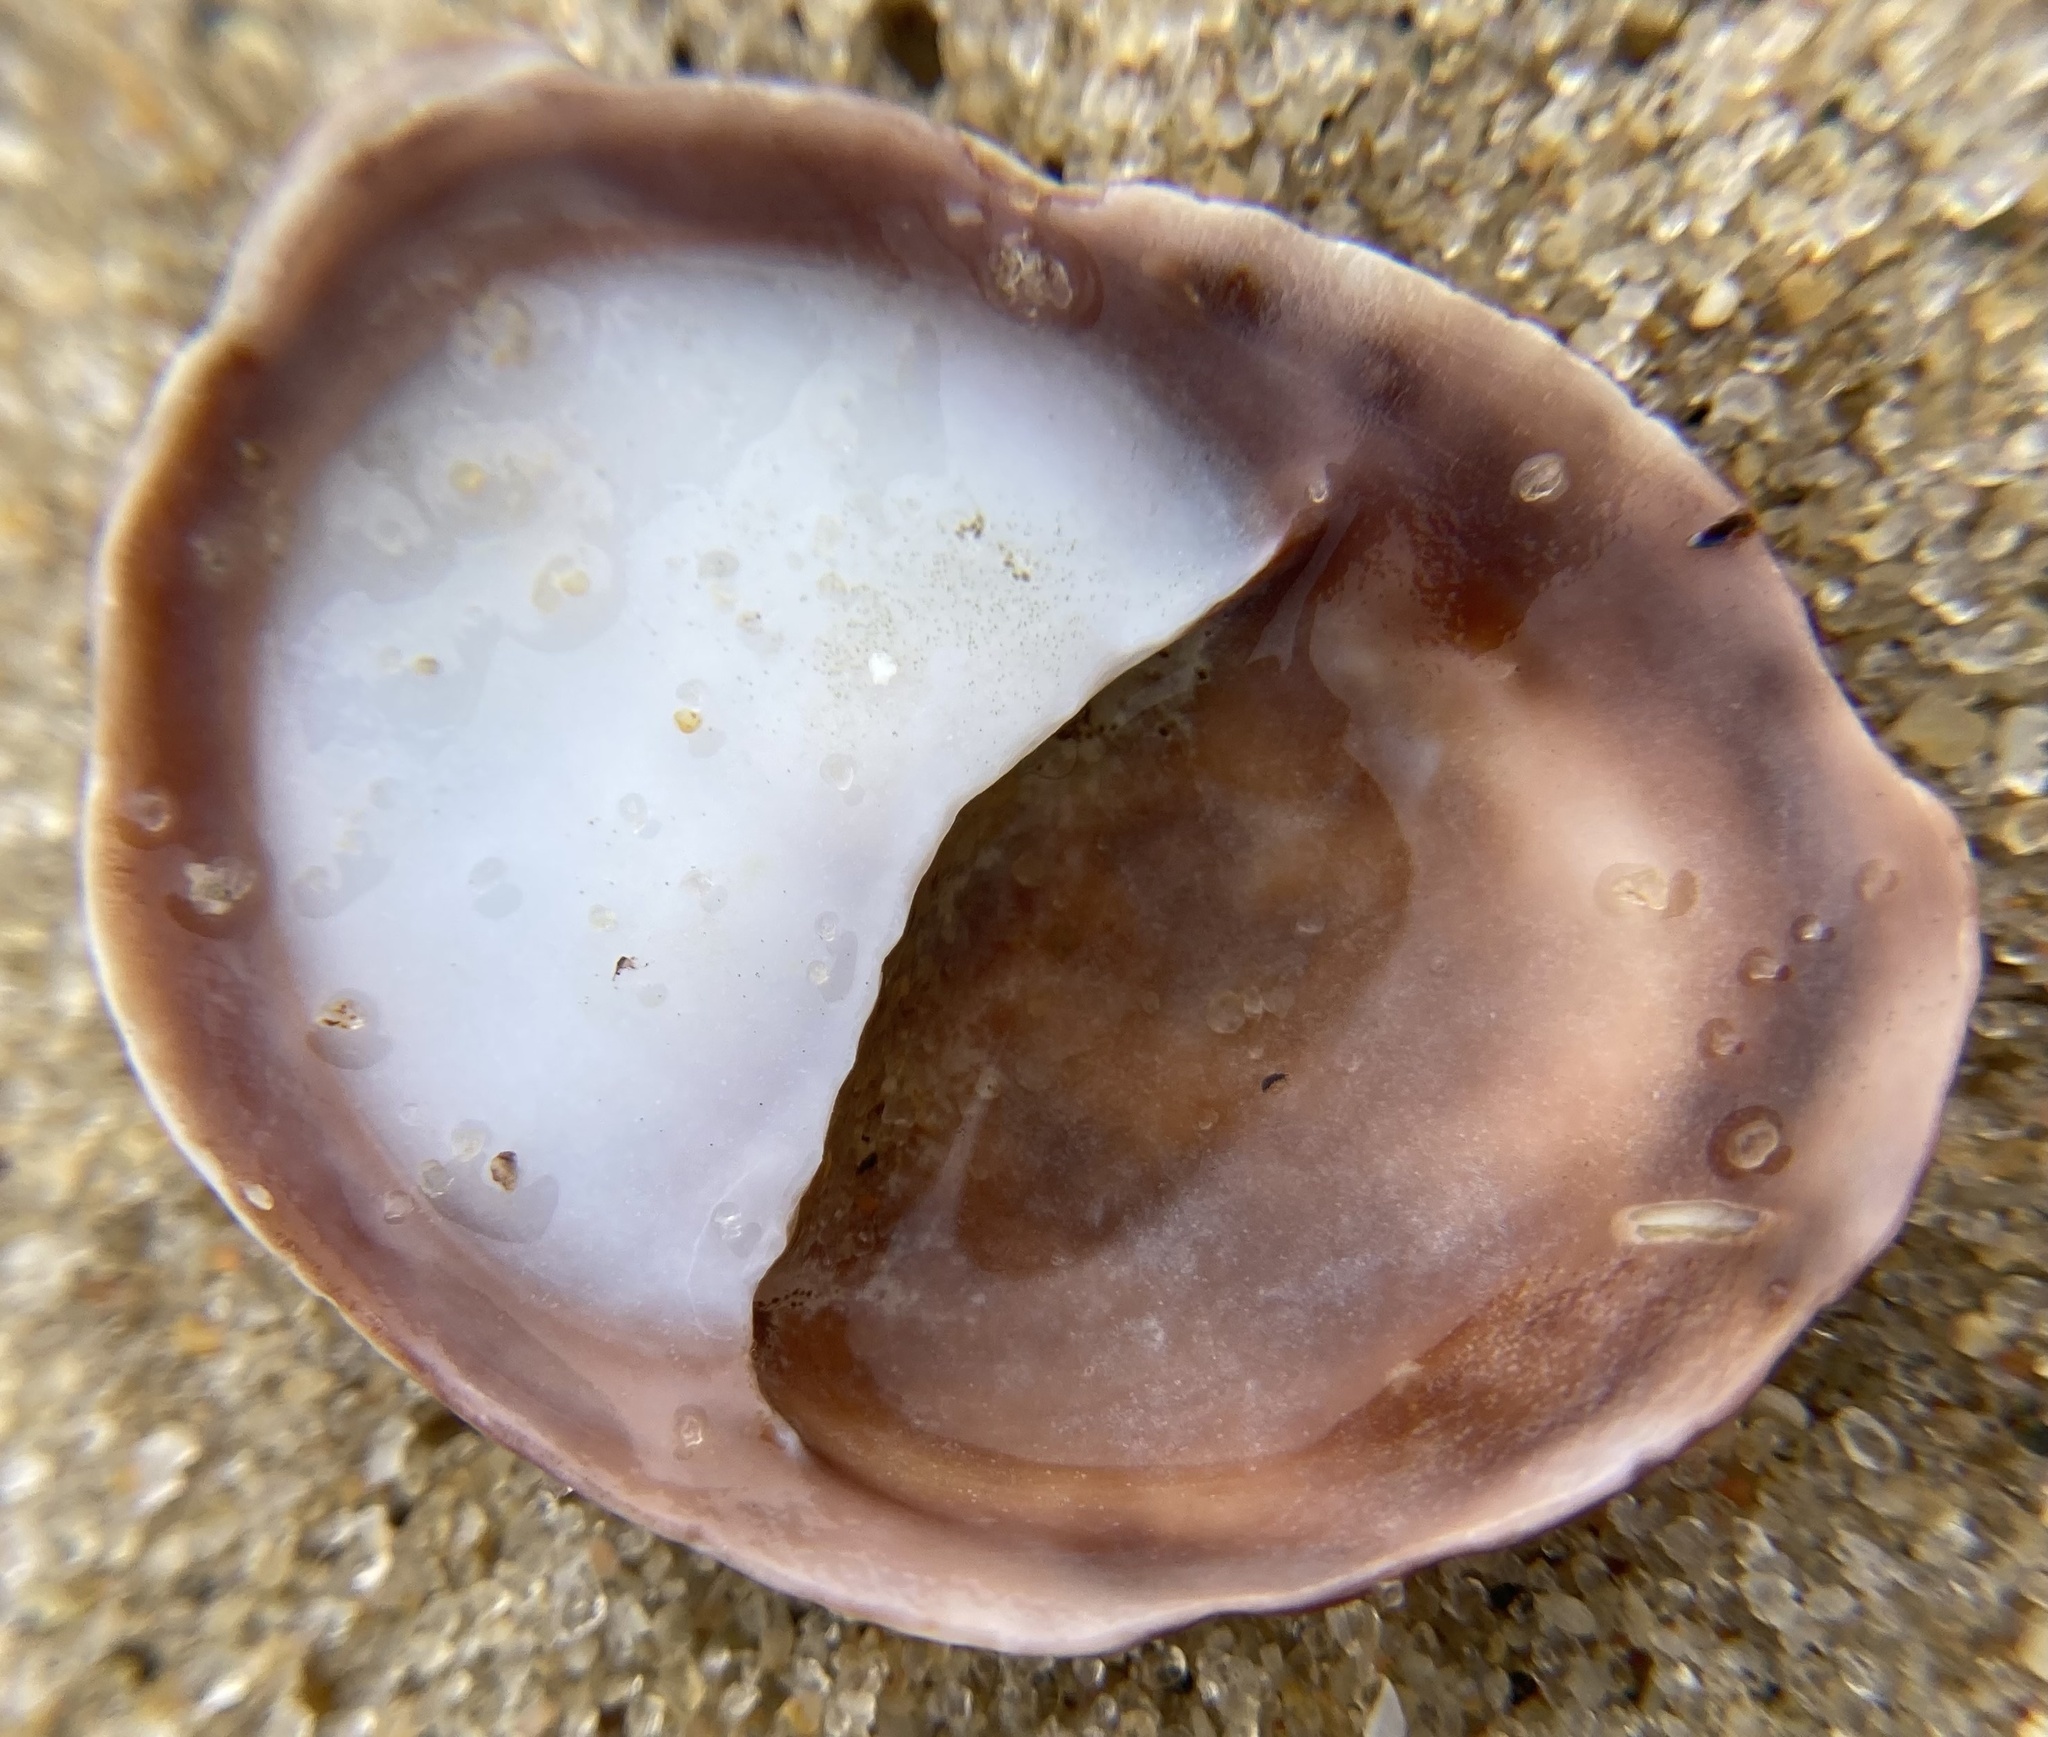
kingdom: Animalia
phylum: Mollusca
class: Gastropoda
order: Littorinimorpha
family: Calyptraeidae
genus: Crepidula
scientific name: Crepidula fornicata
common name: Slipper limpet
